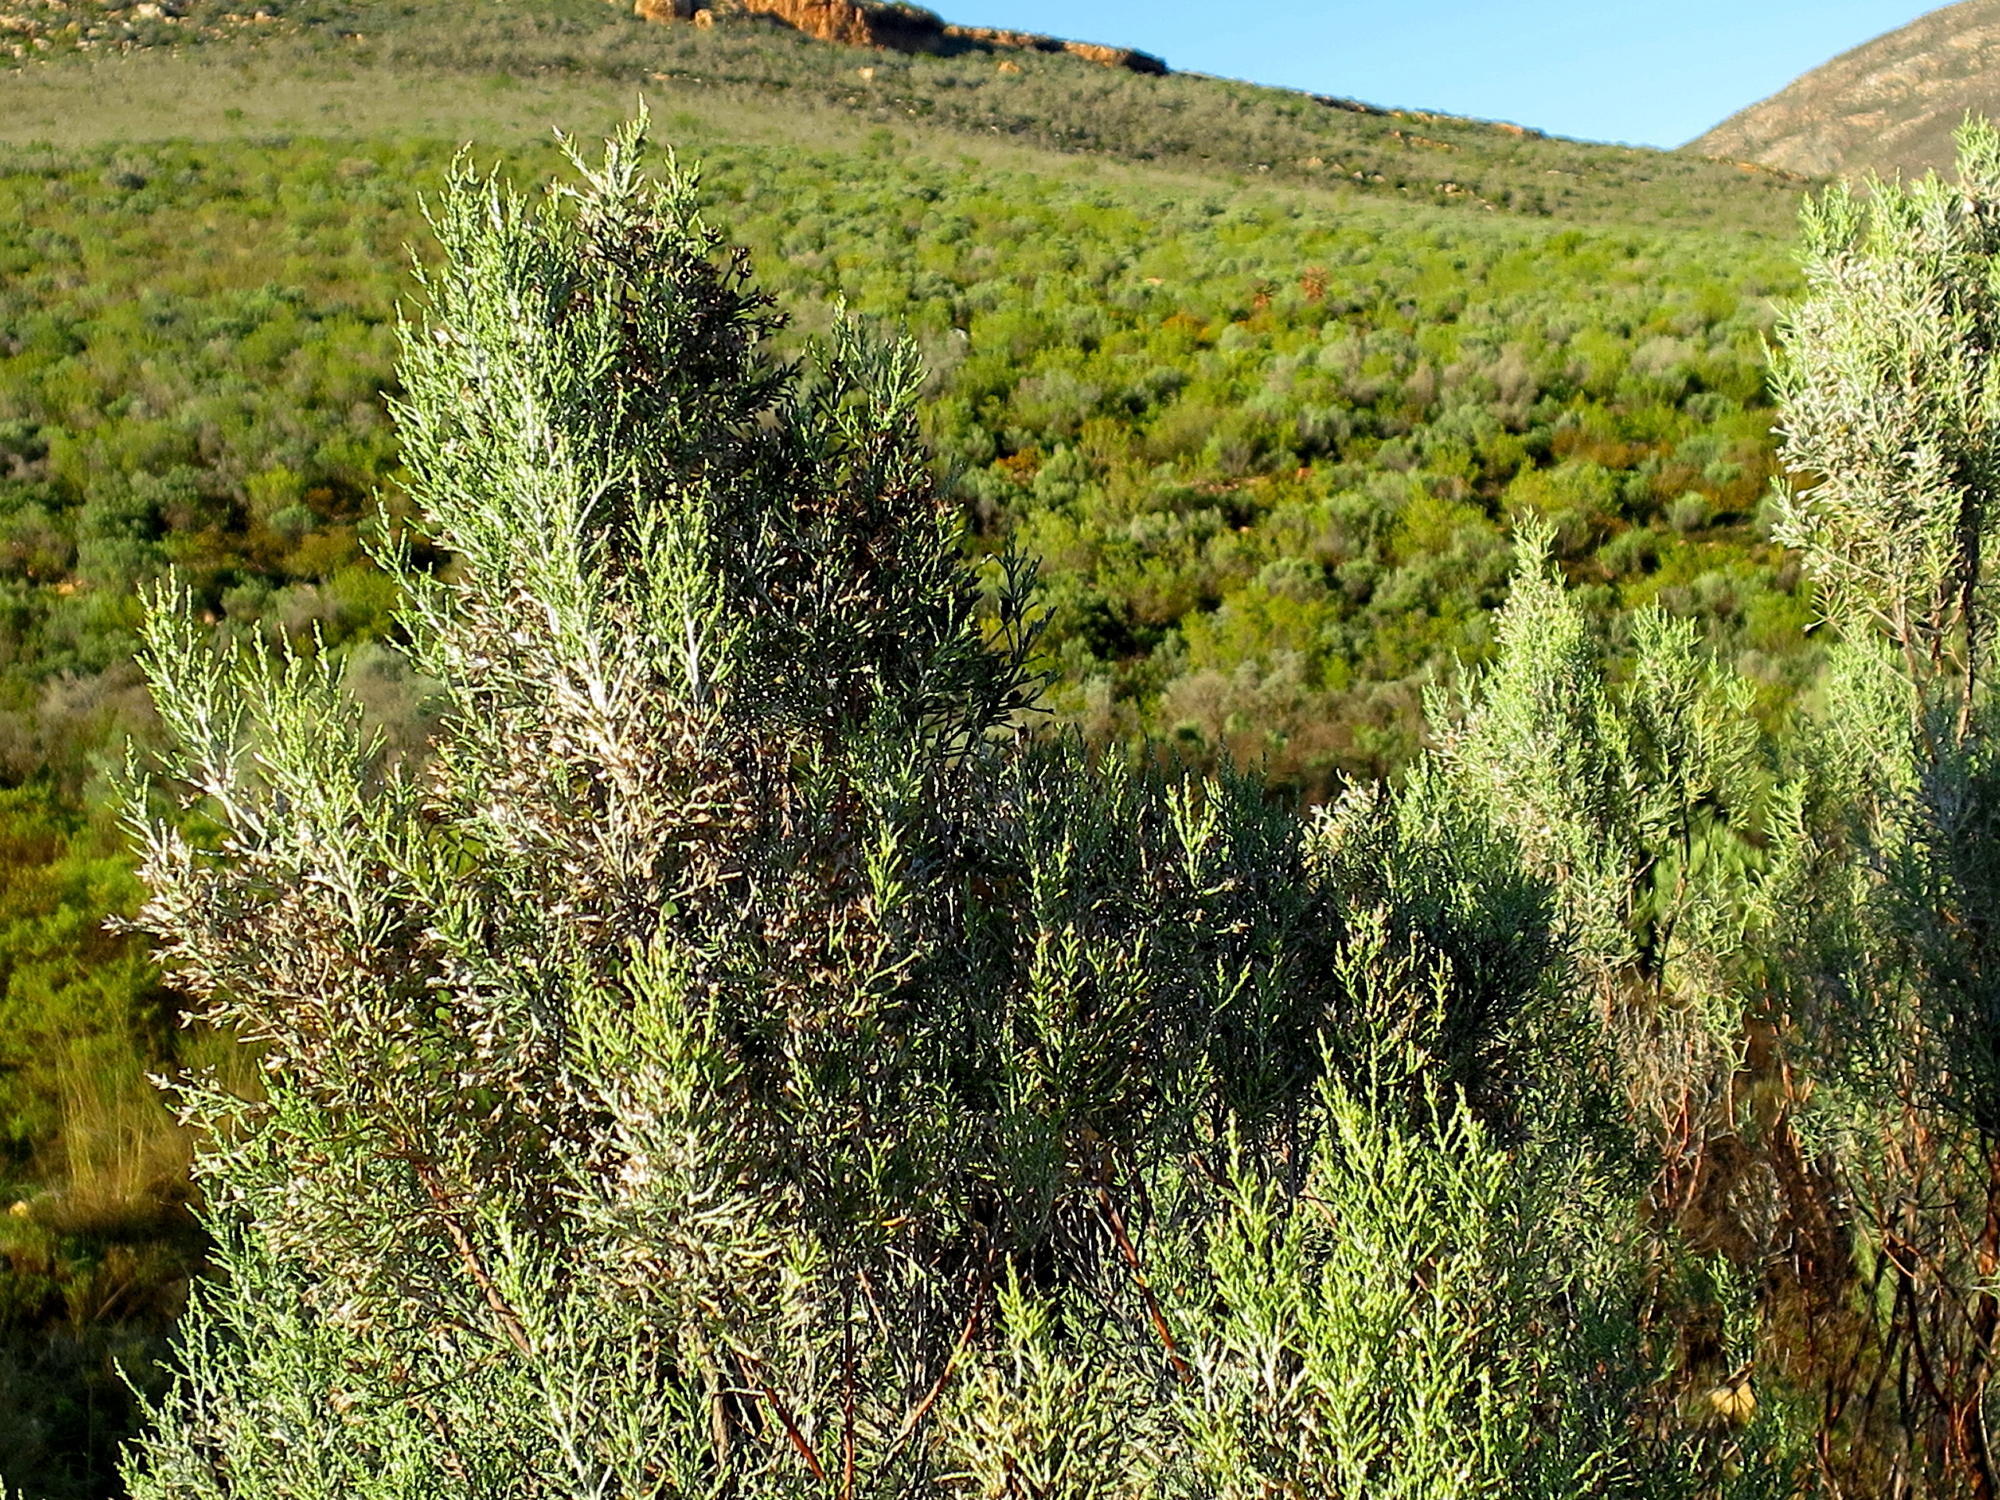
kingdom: Plantae
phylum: Tracheophyta
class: Magnoliopsida
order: Asterales
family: Asteraceae
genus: Dicerothamnus
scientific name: Dicerothamnus rhinocerotis
